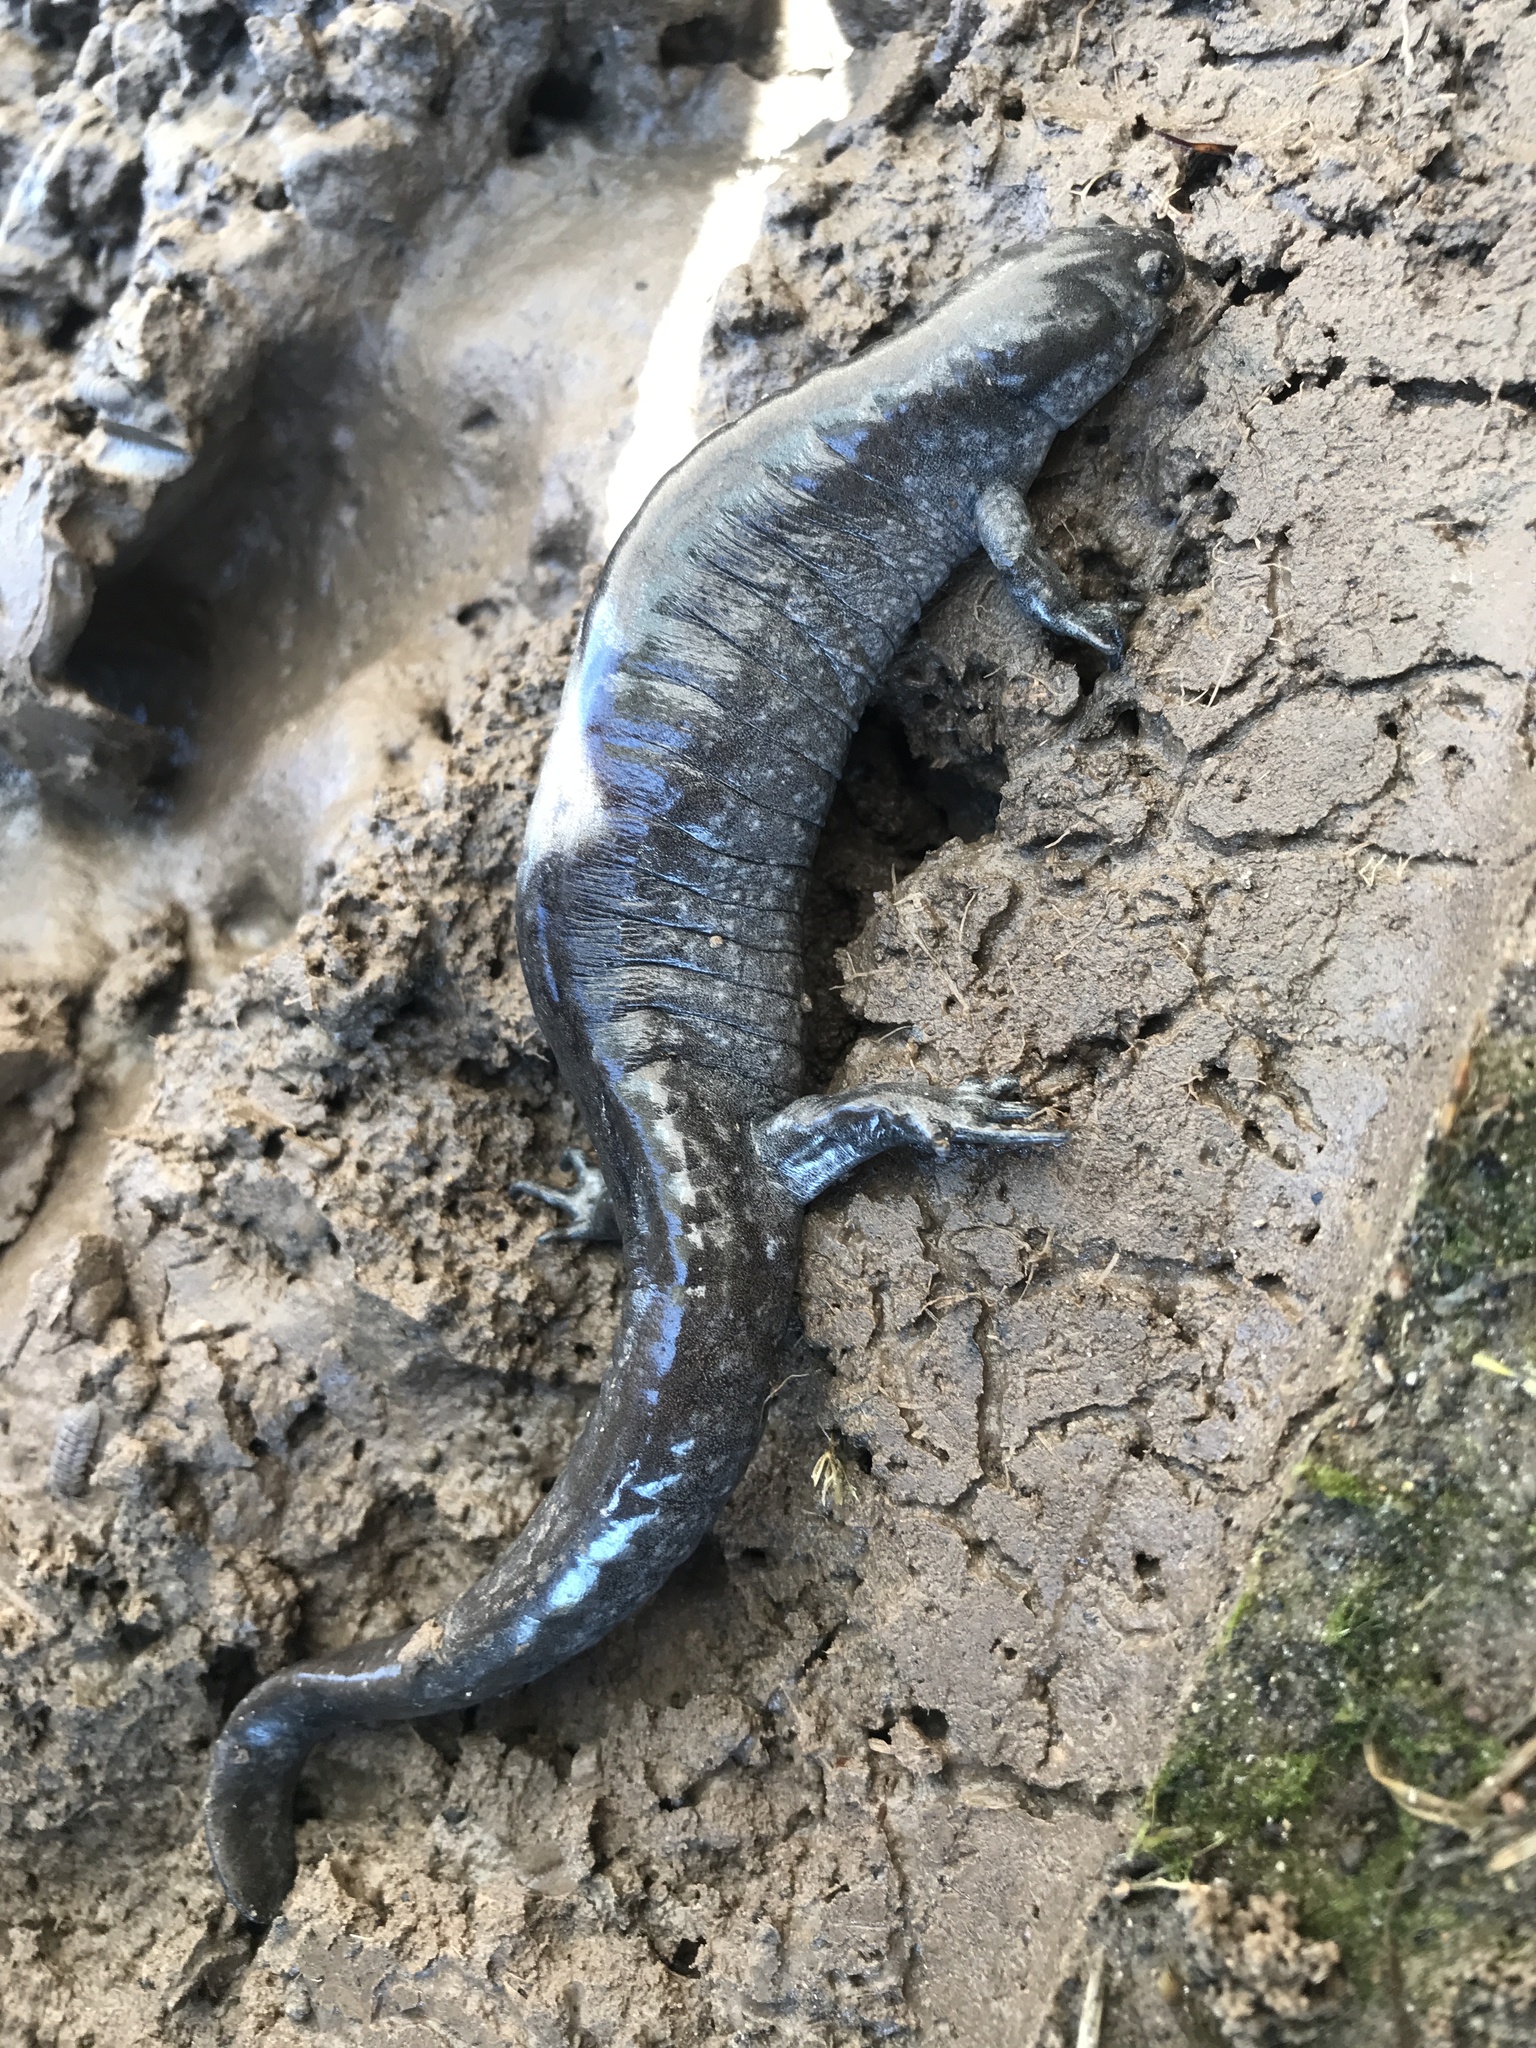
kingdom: Animalia
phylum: Chordata
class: Amphibia
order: Caudata
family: Ambystomatidae
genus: Ambystoma
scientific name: Ambystoma texanum
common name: Small-mouth salamander
